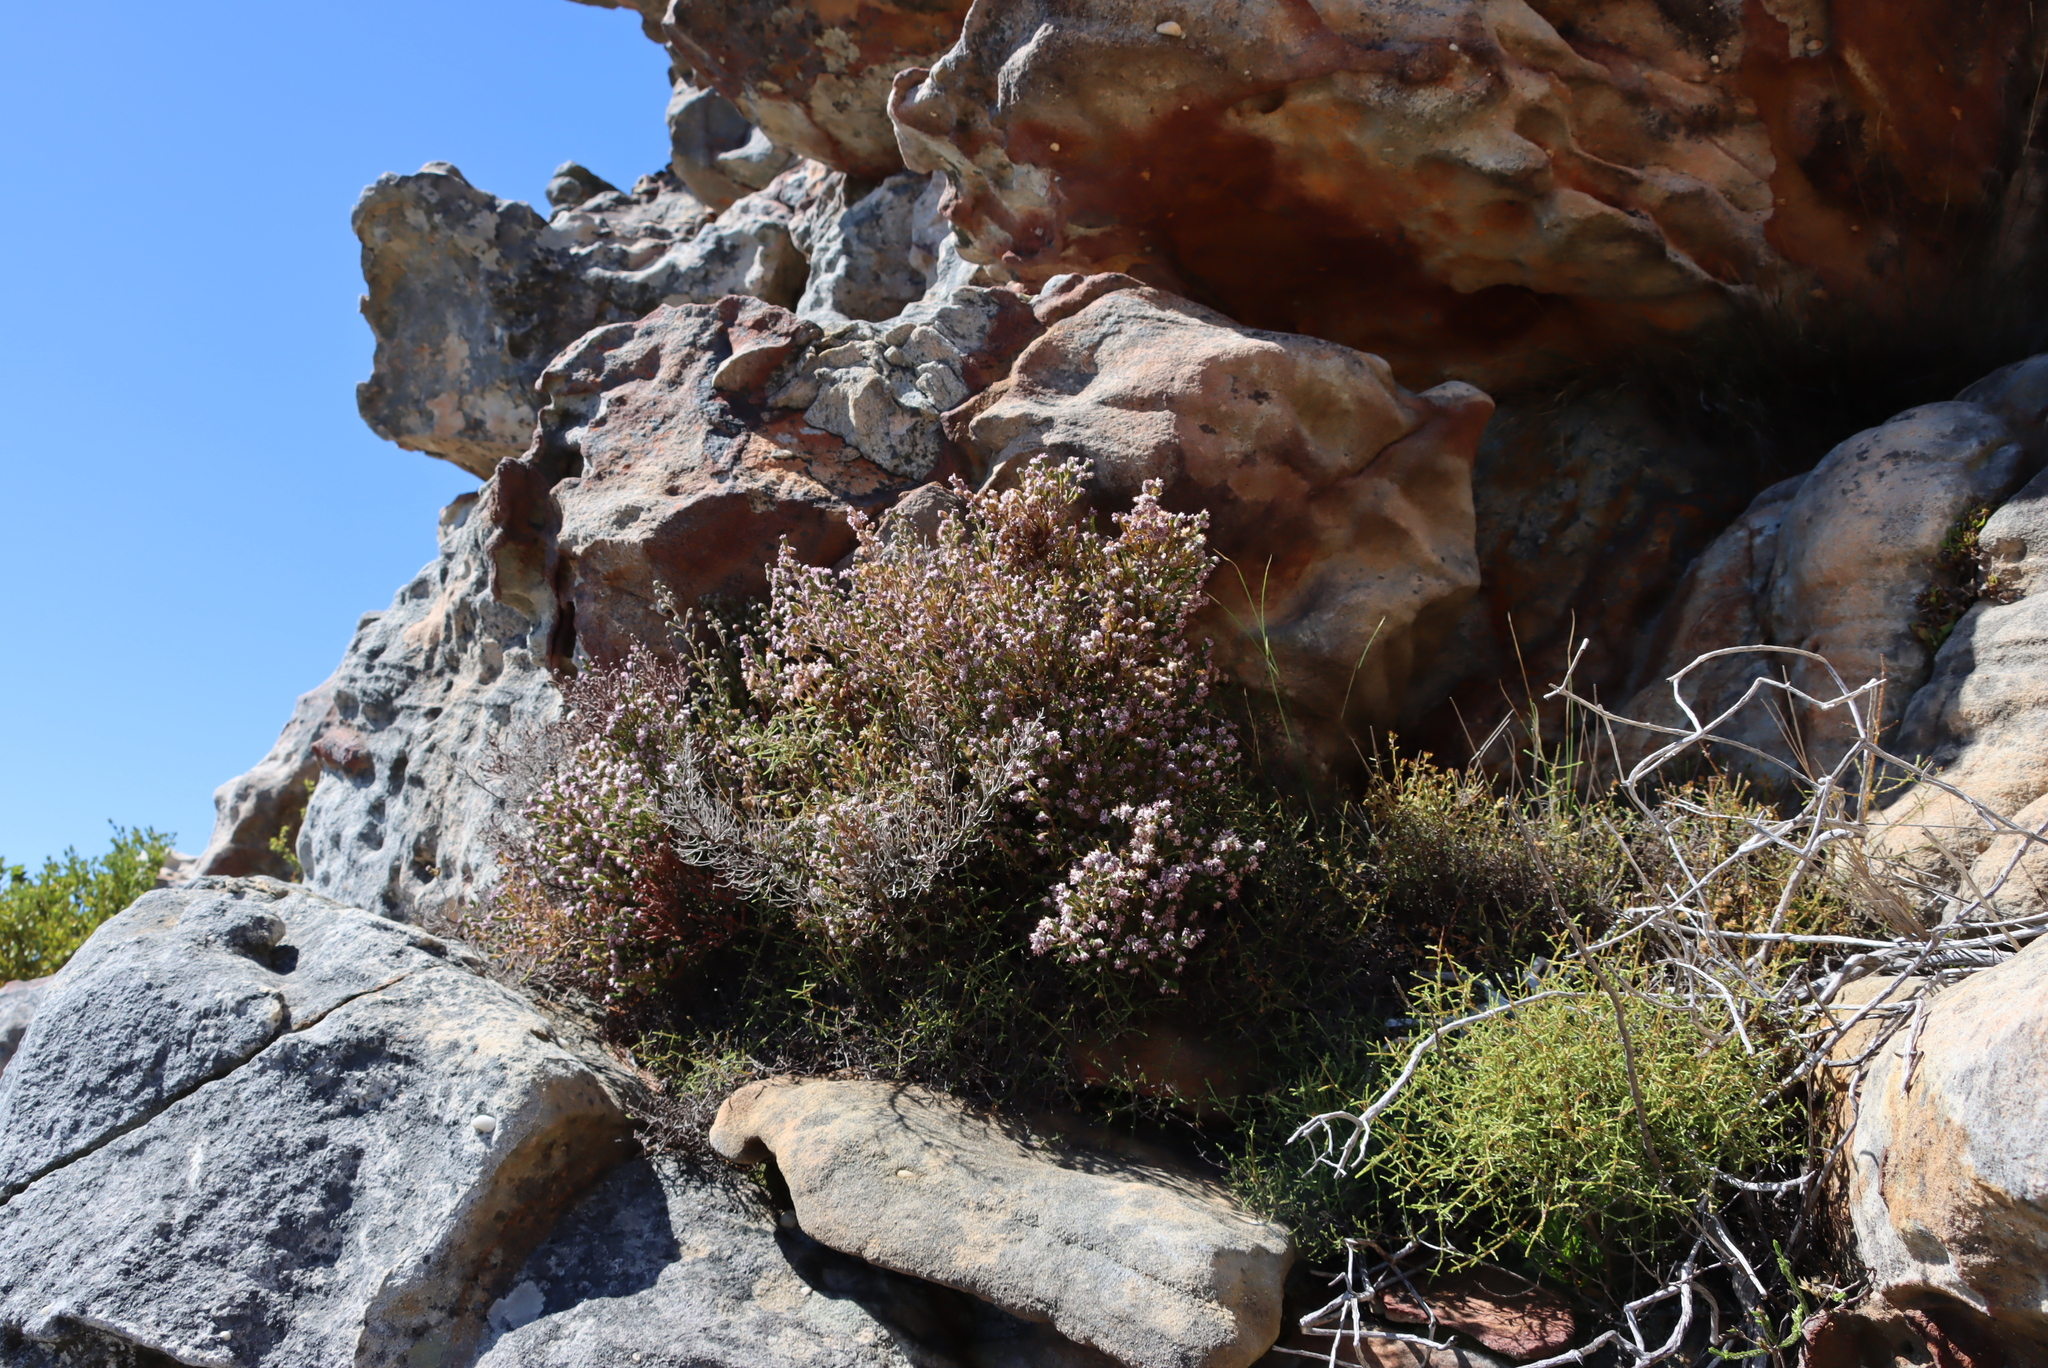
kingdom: Plantae
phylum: Tracheophyta
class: Magnoliopsida
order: Ericales
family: Ericaceae
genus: Erica
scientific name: Erica ericoides
